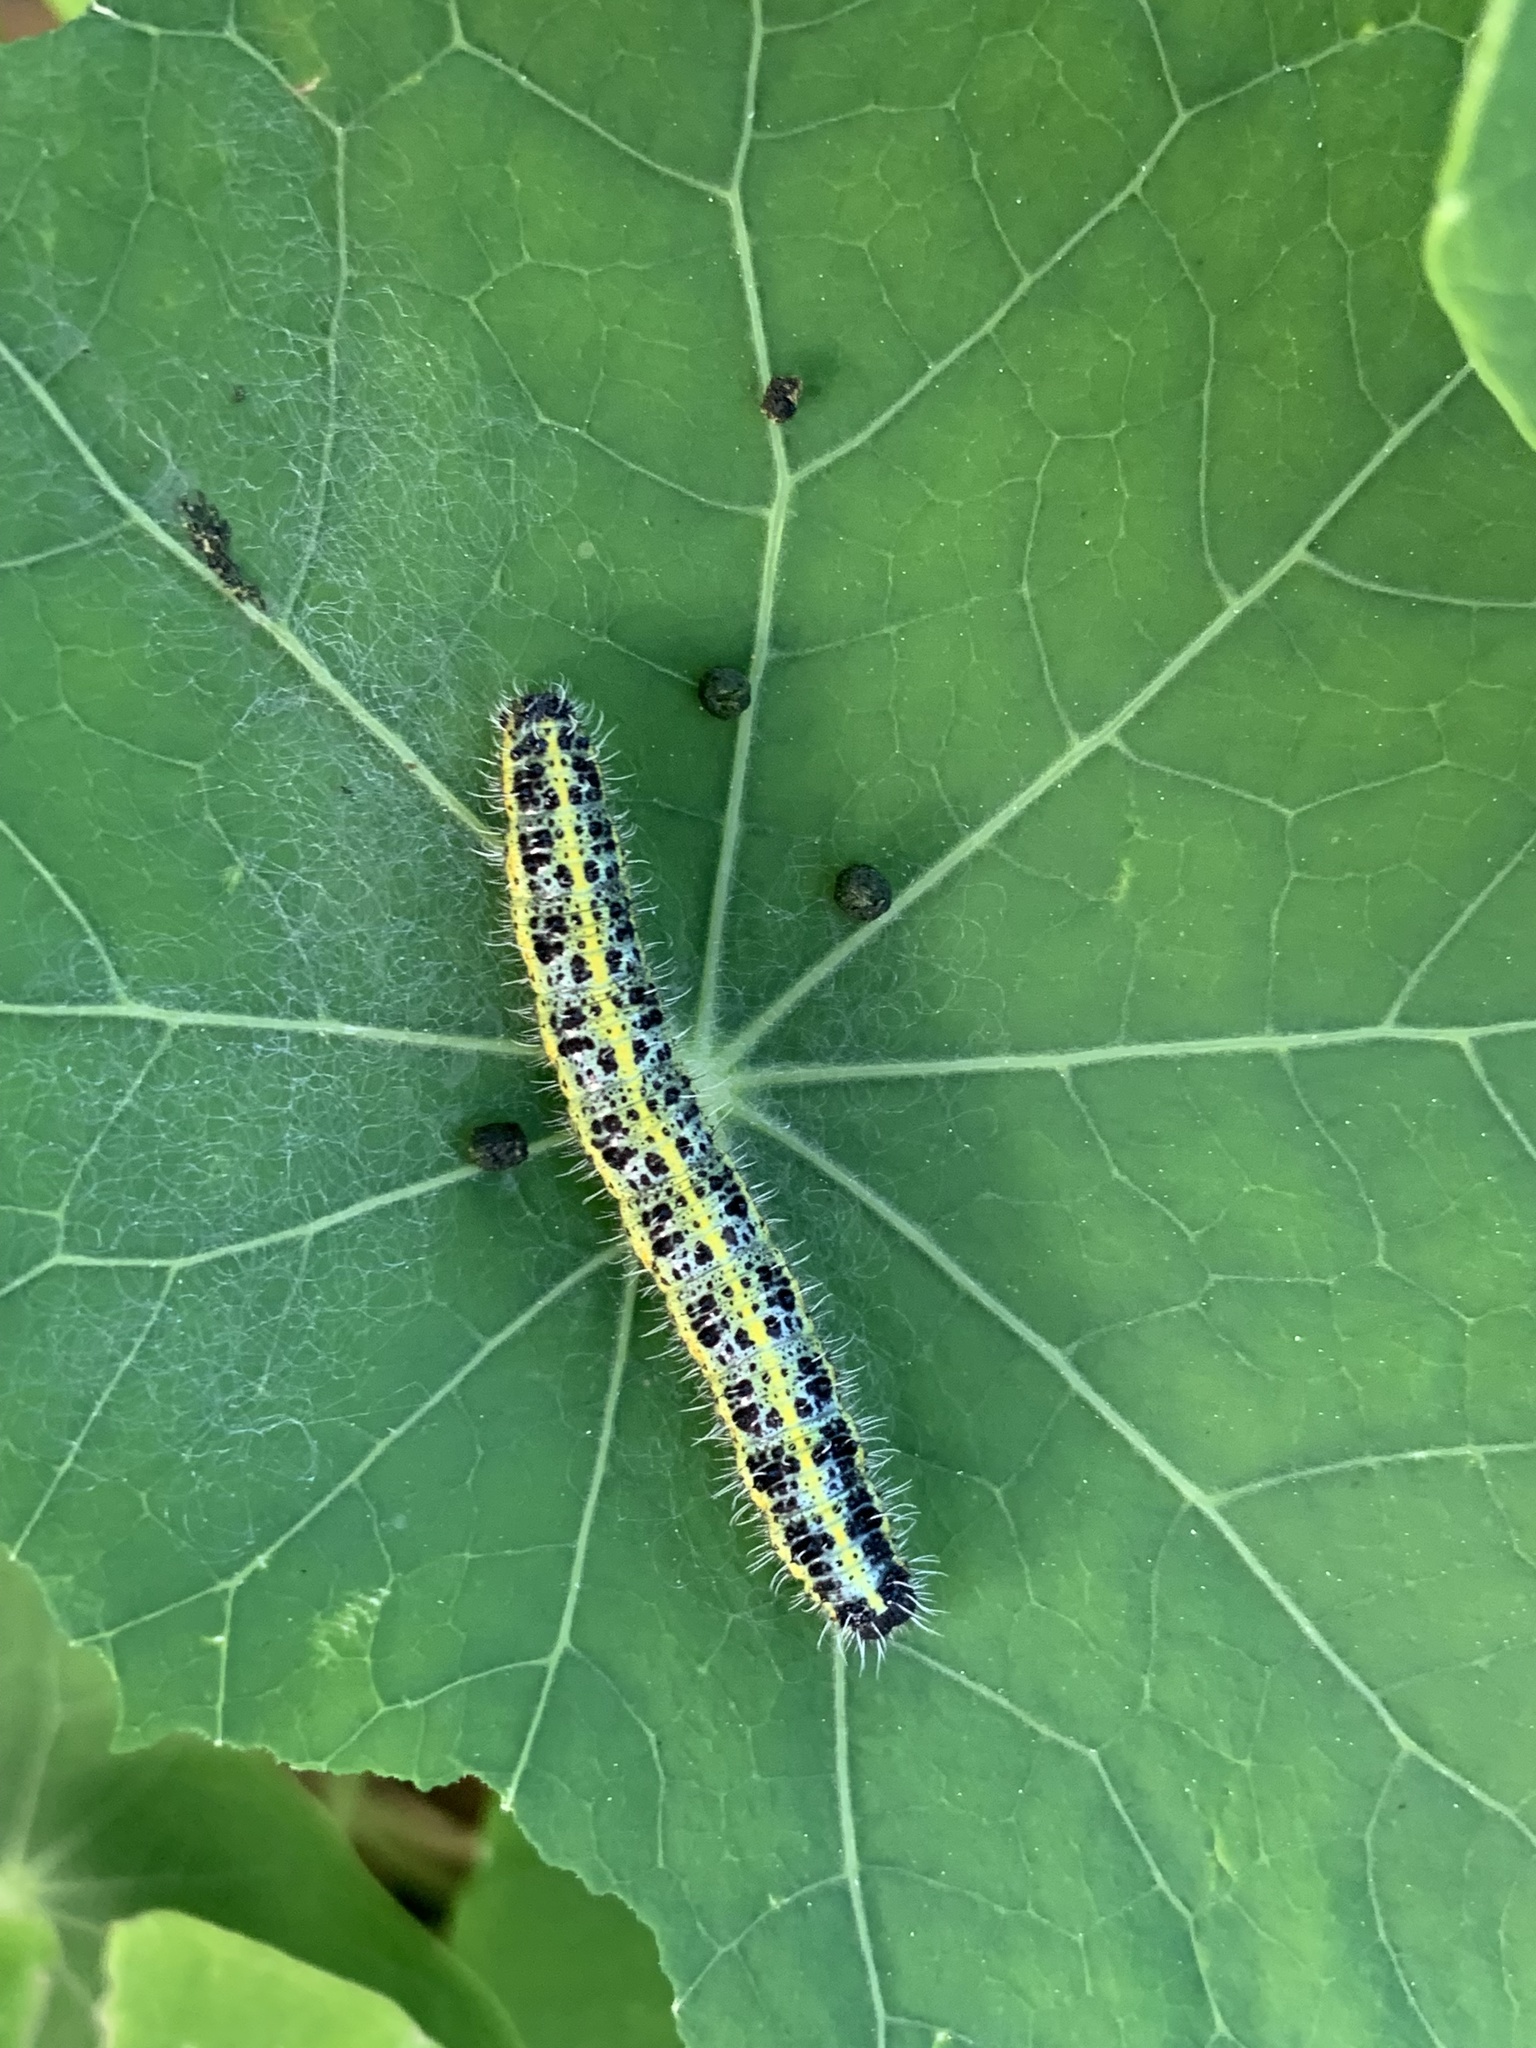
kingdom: Animalia
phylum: Arthropoda
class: Insecta
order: Lepidoptera
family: Pieridae
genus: Pieris
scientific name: Pieris brassicae
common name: Large white
